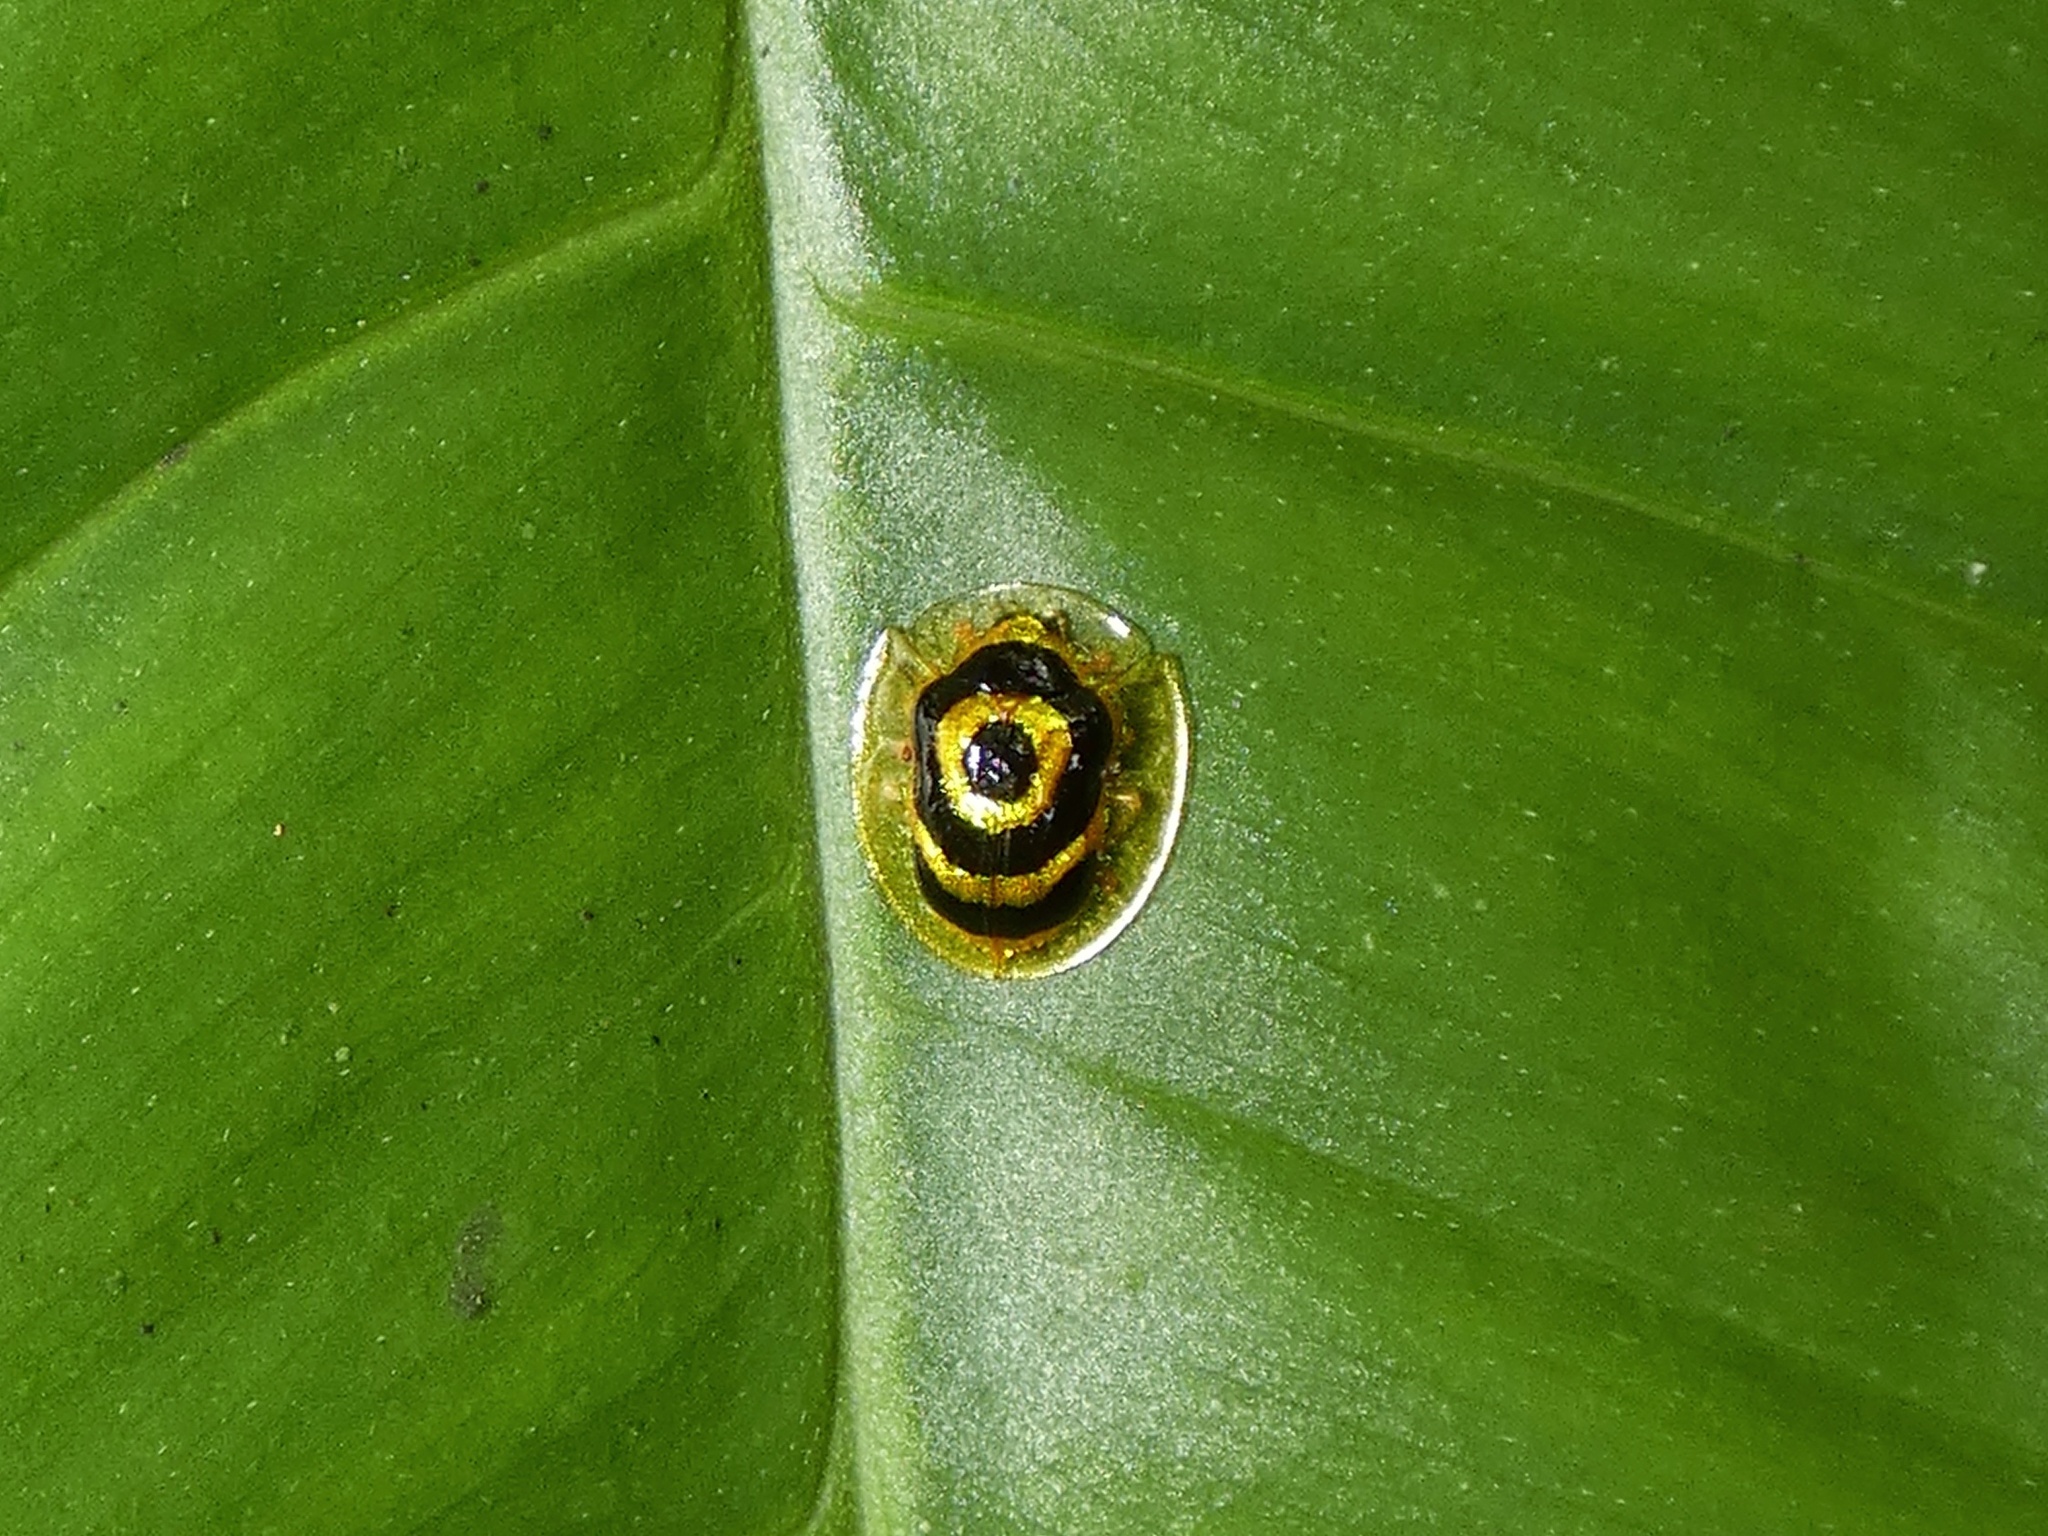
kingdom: Animalia
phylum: Arthropoda
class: Insecta
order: Coleoptera
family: Chrysomelidae
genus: Ischnocodia
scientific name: Ischnocodia annulus
